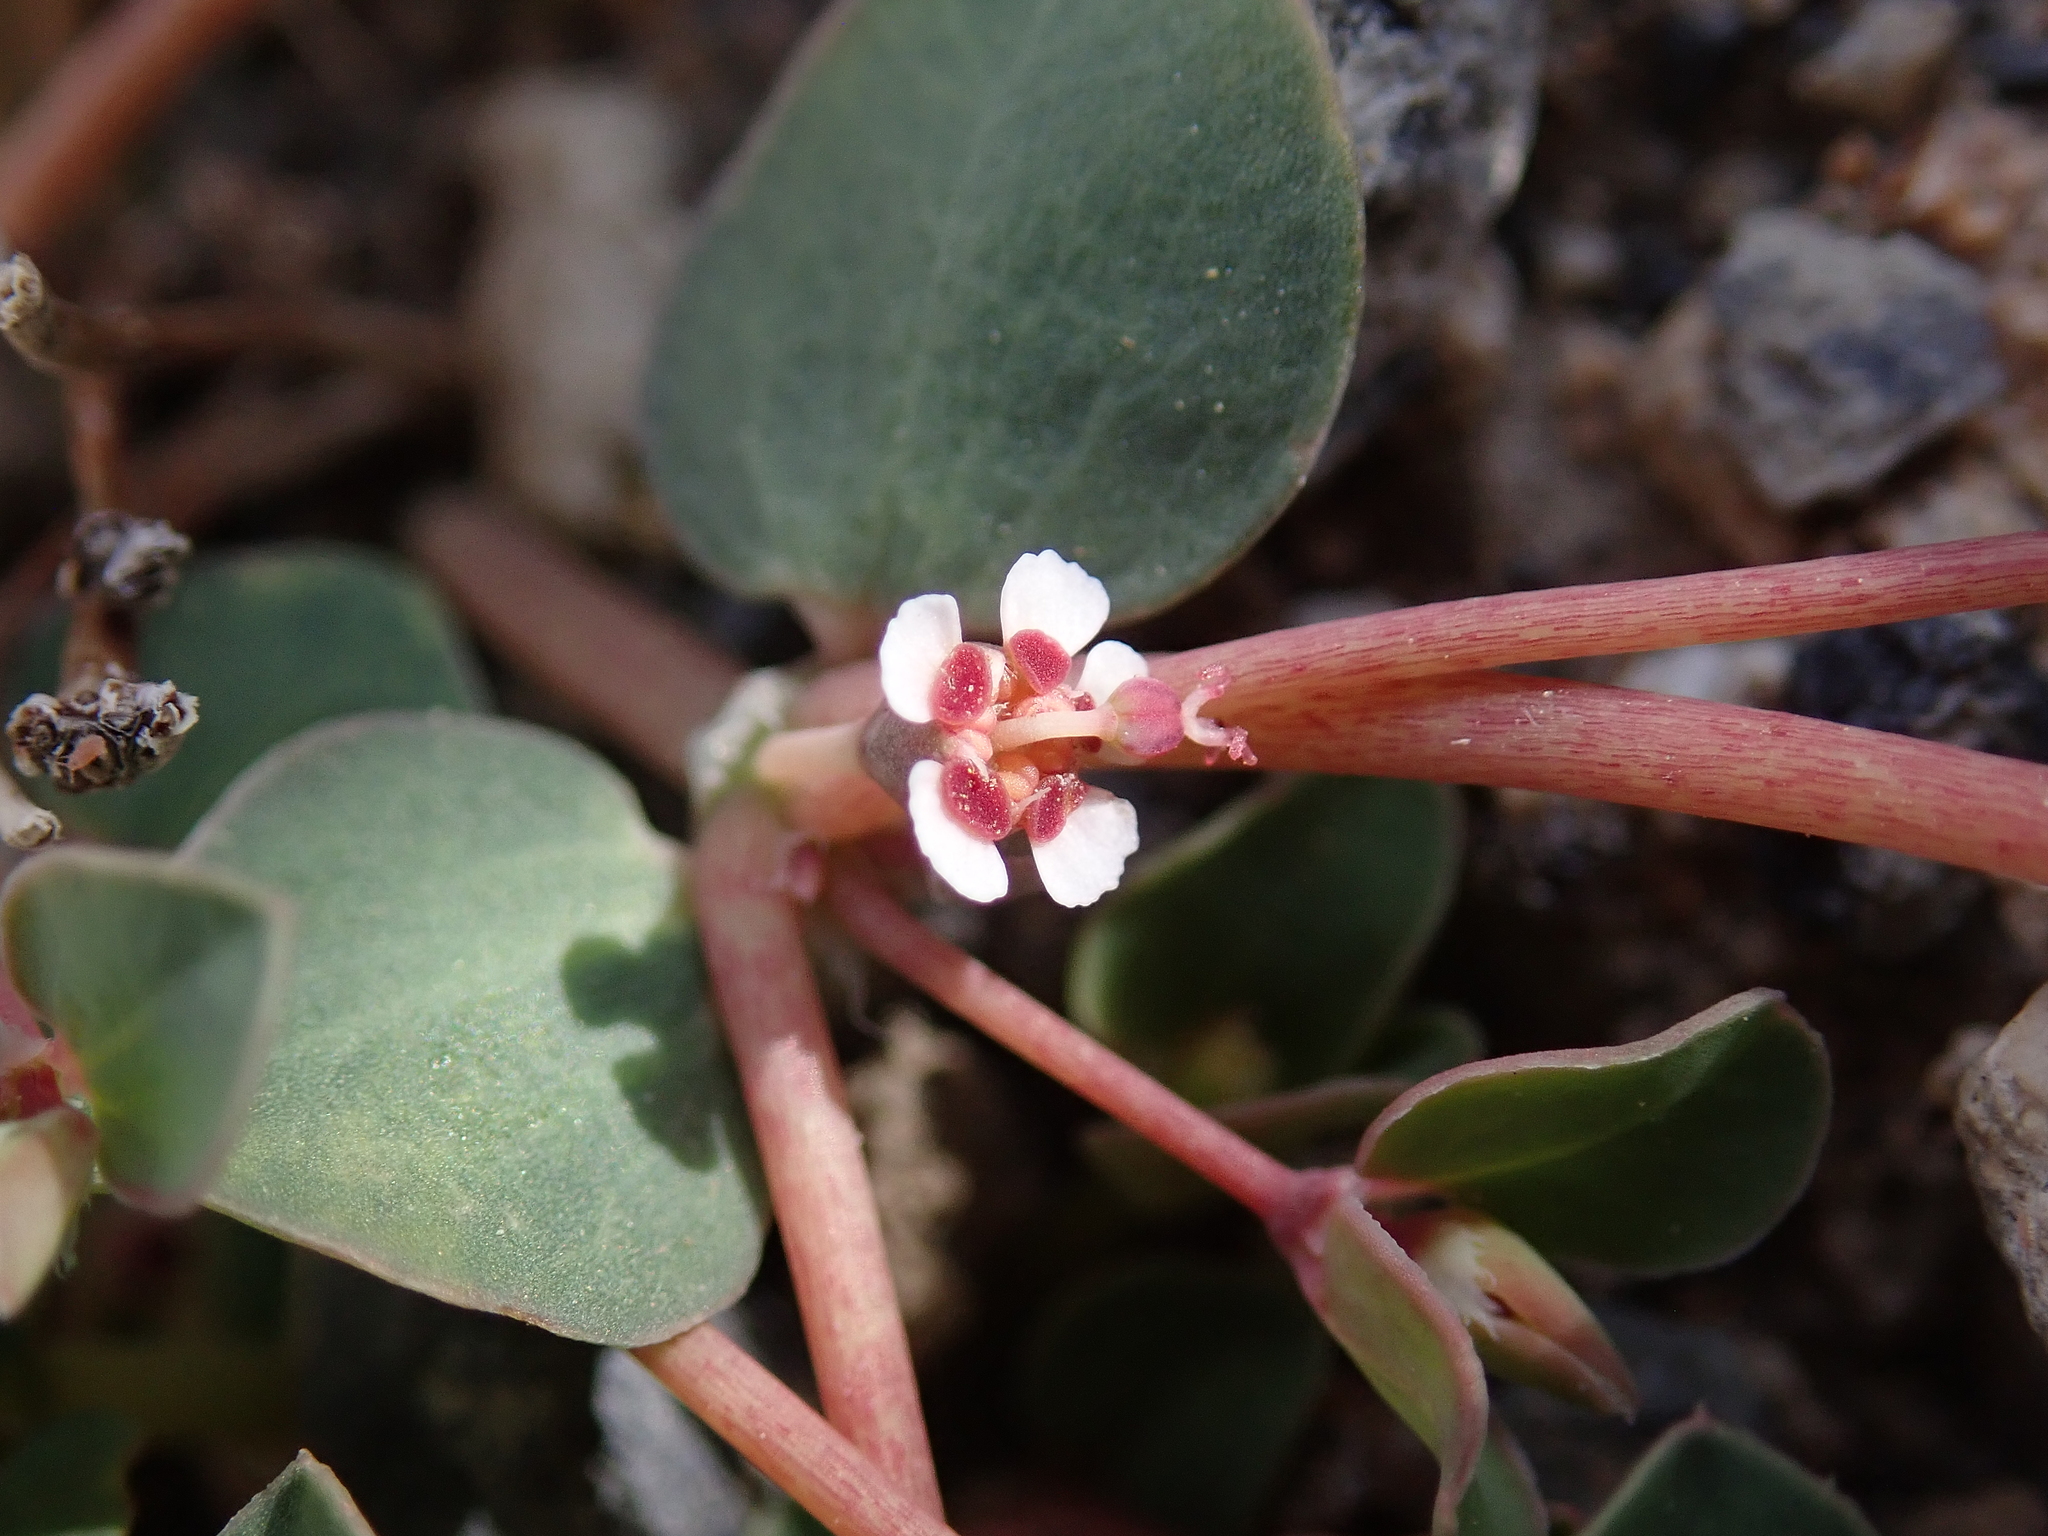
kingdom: Plantae
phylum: Tracheophyta
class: Magnoliopsida
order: Malpighiales
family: Euphorbiaceae
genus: Euphorbia
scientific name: Euphorbia albomarginata
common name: Whitemargin sandmat
